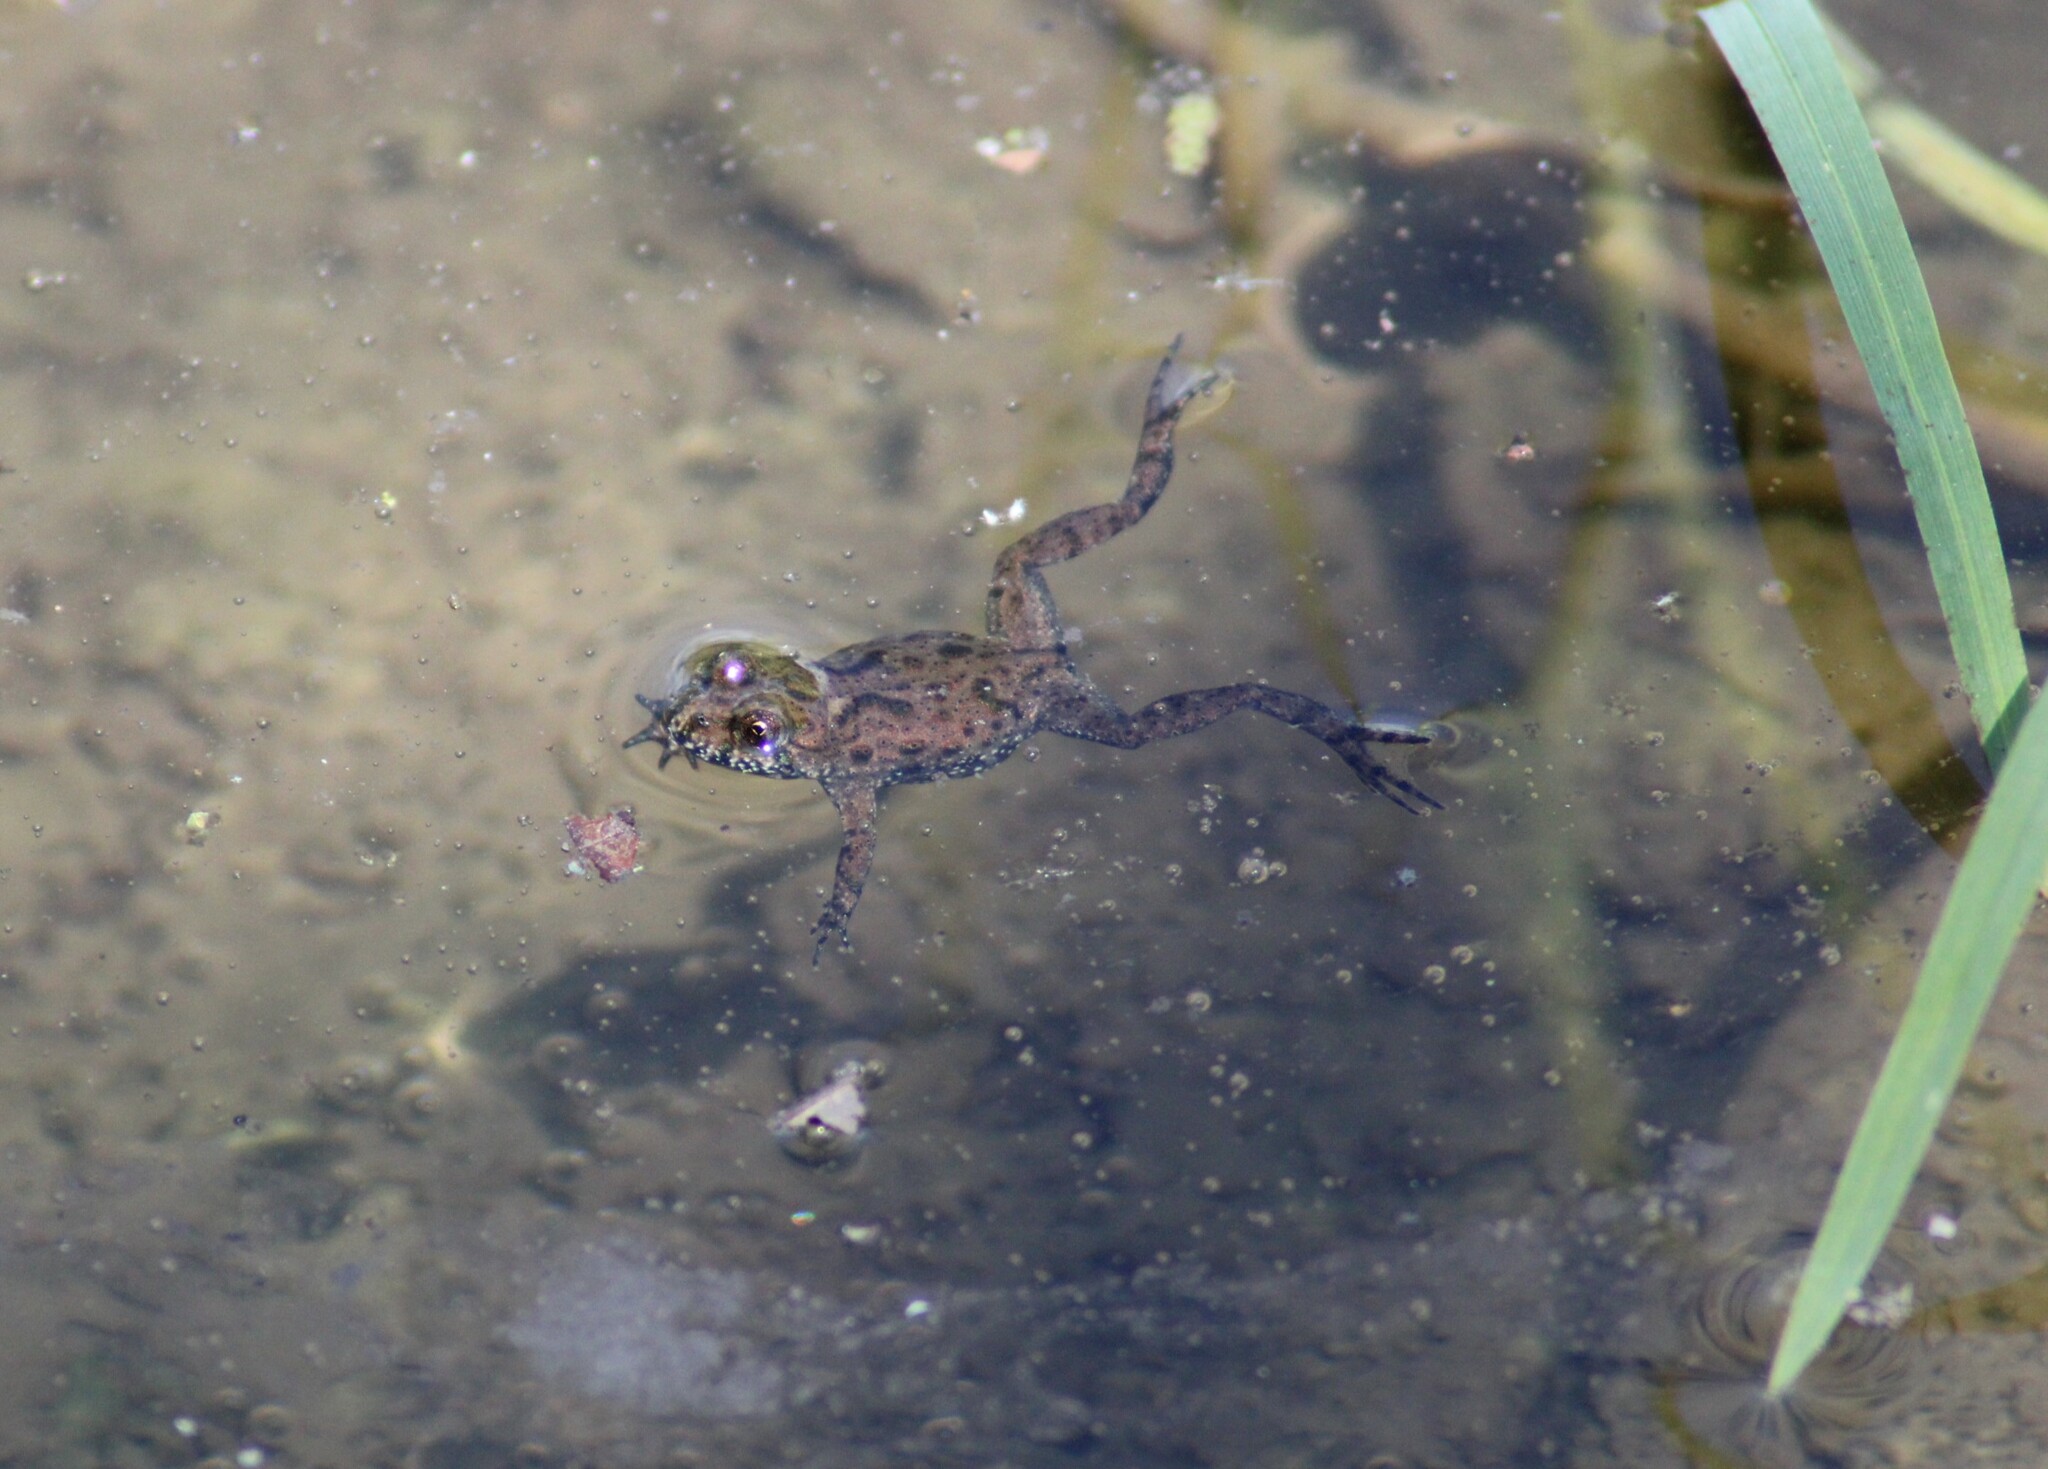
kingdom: Animalia
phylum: Chordata
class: Amphibia
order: Anura
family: Bombinatoridae
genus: Bombina
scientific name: Bombina bombina
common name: Fire-bellied toad
